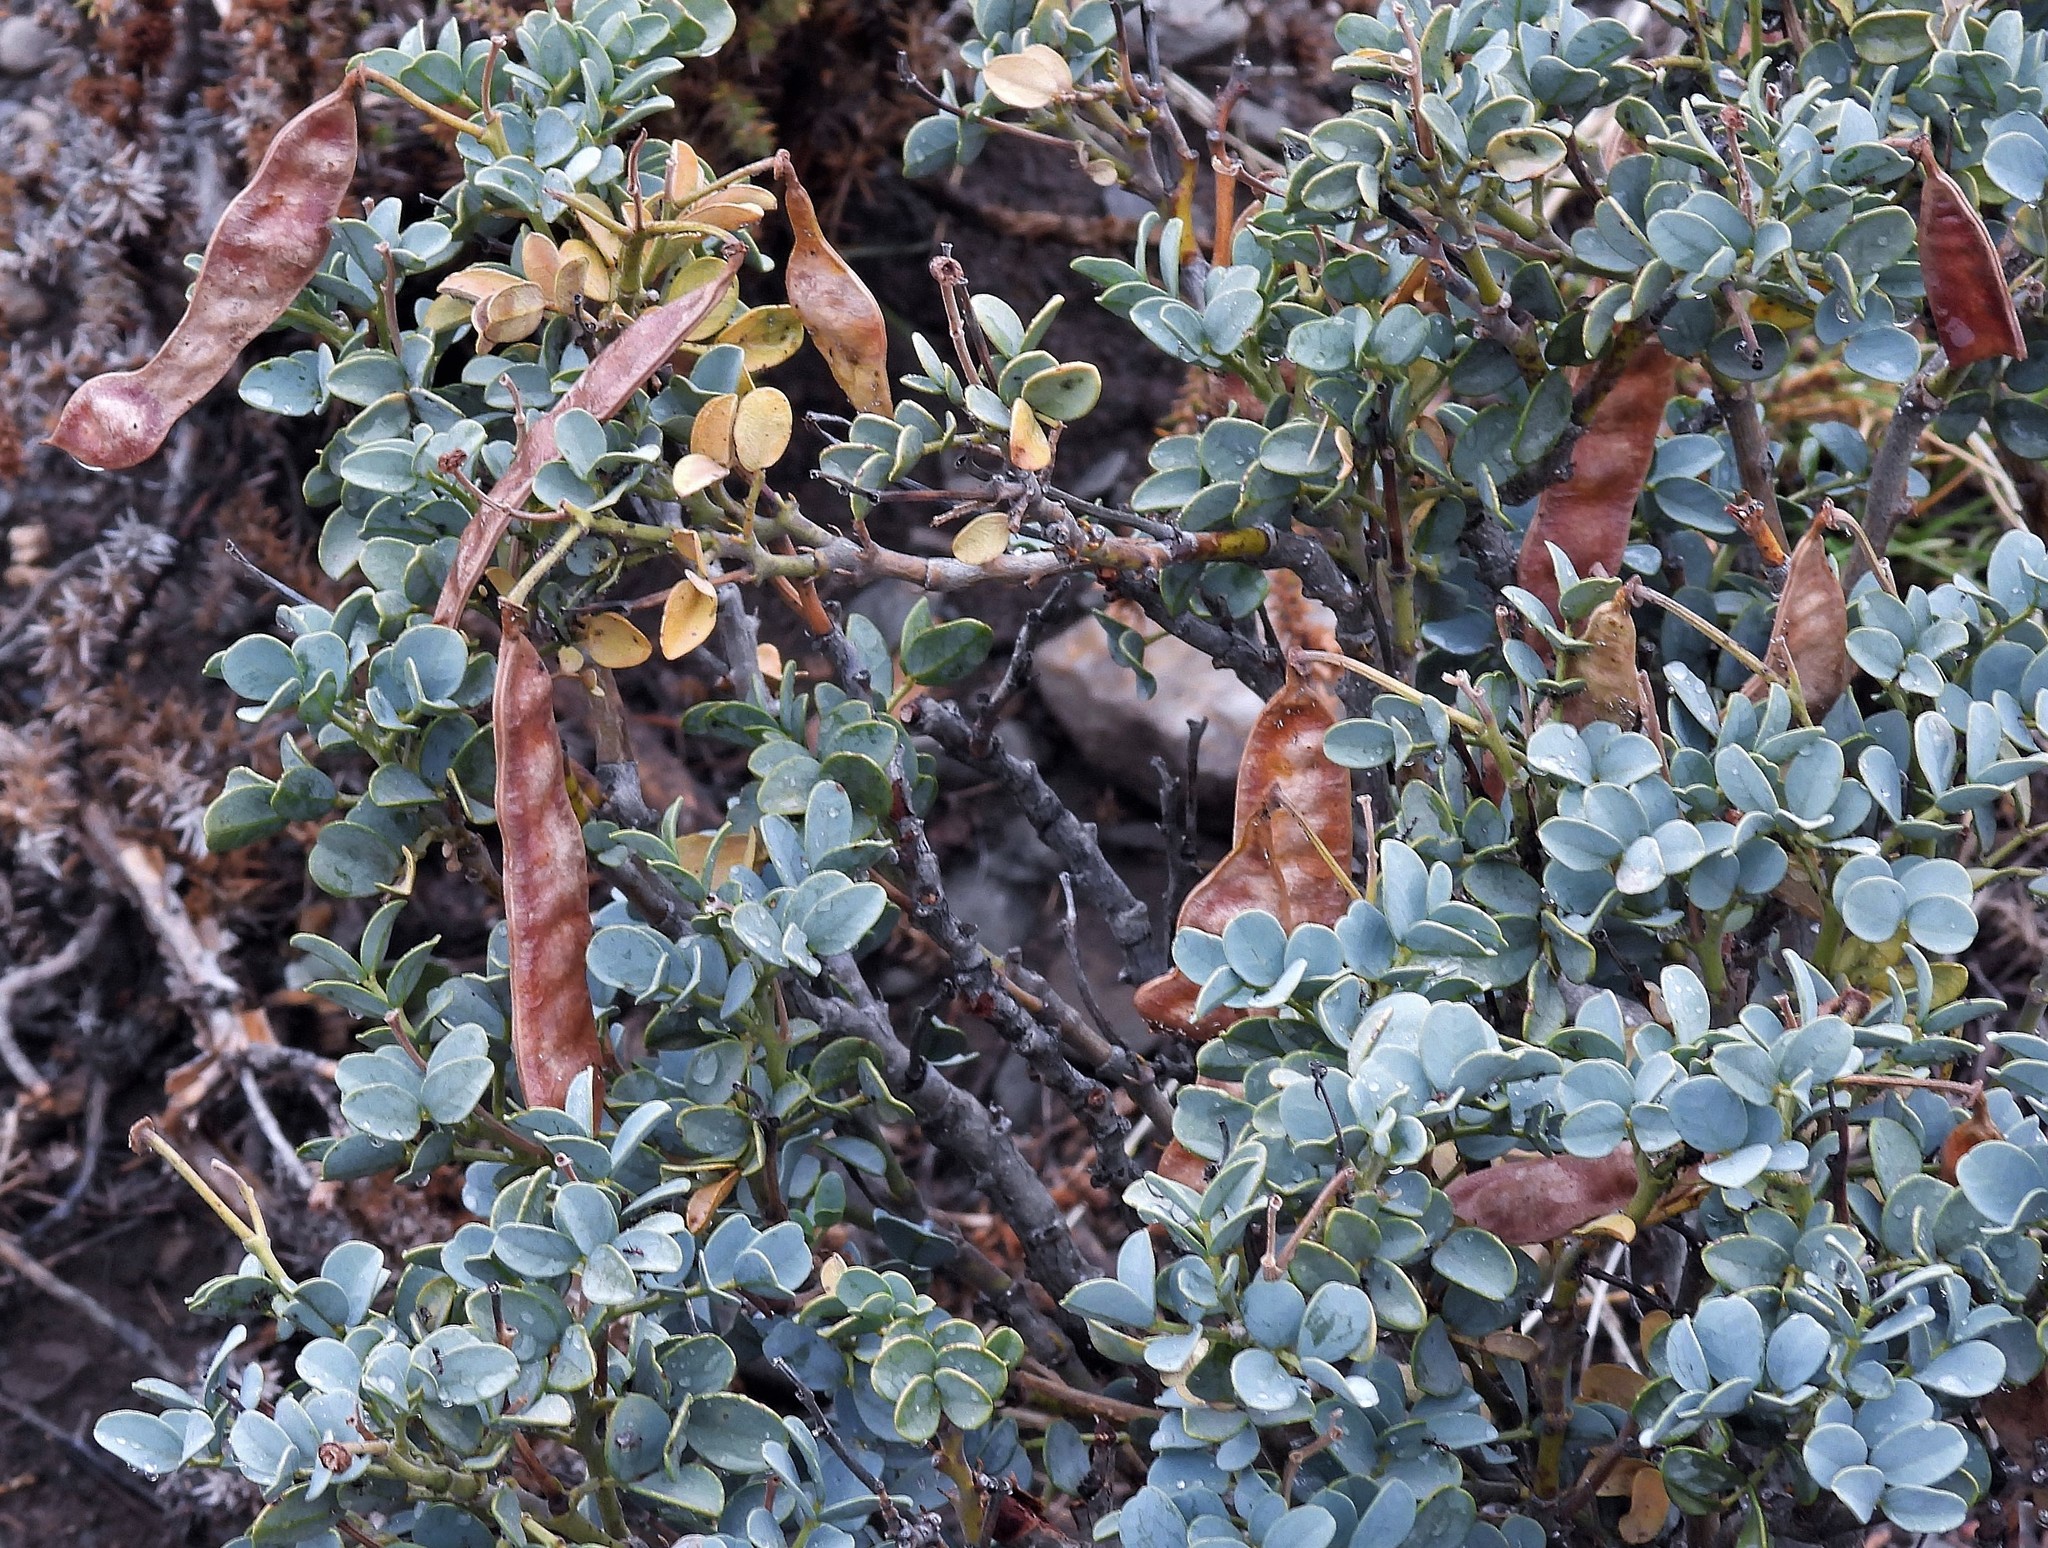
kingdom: Plantae
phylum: Tracheophyta
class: Magnoliopsida
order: Fabales
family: Fabaceae
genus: Senna
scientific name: Senna arnottiana
